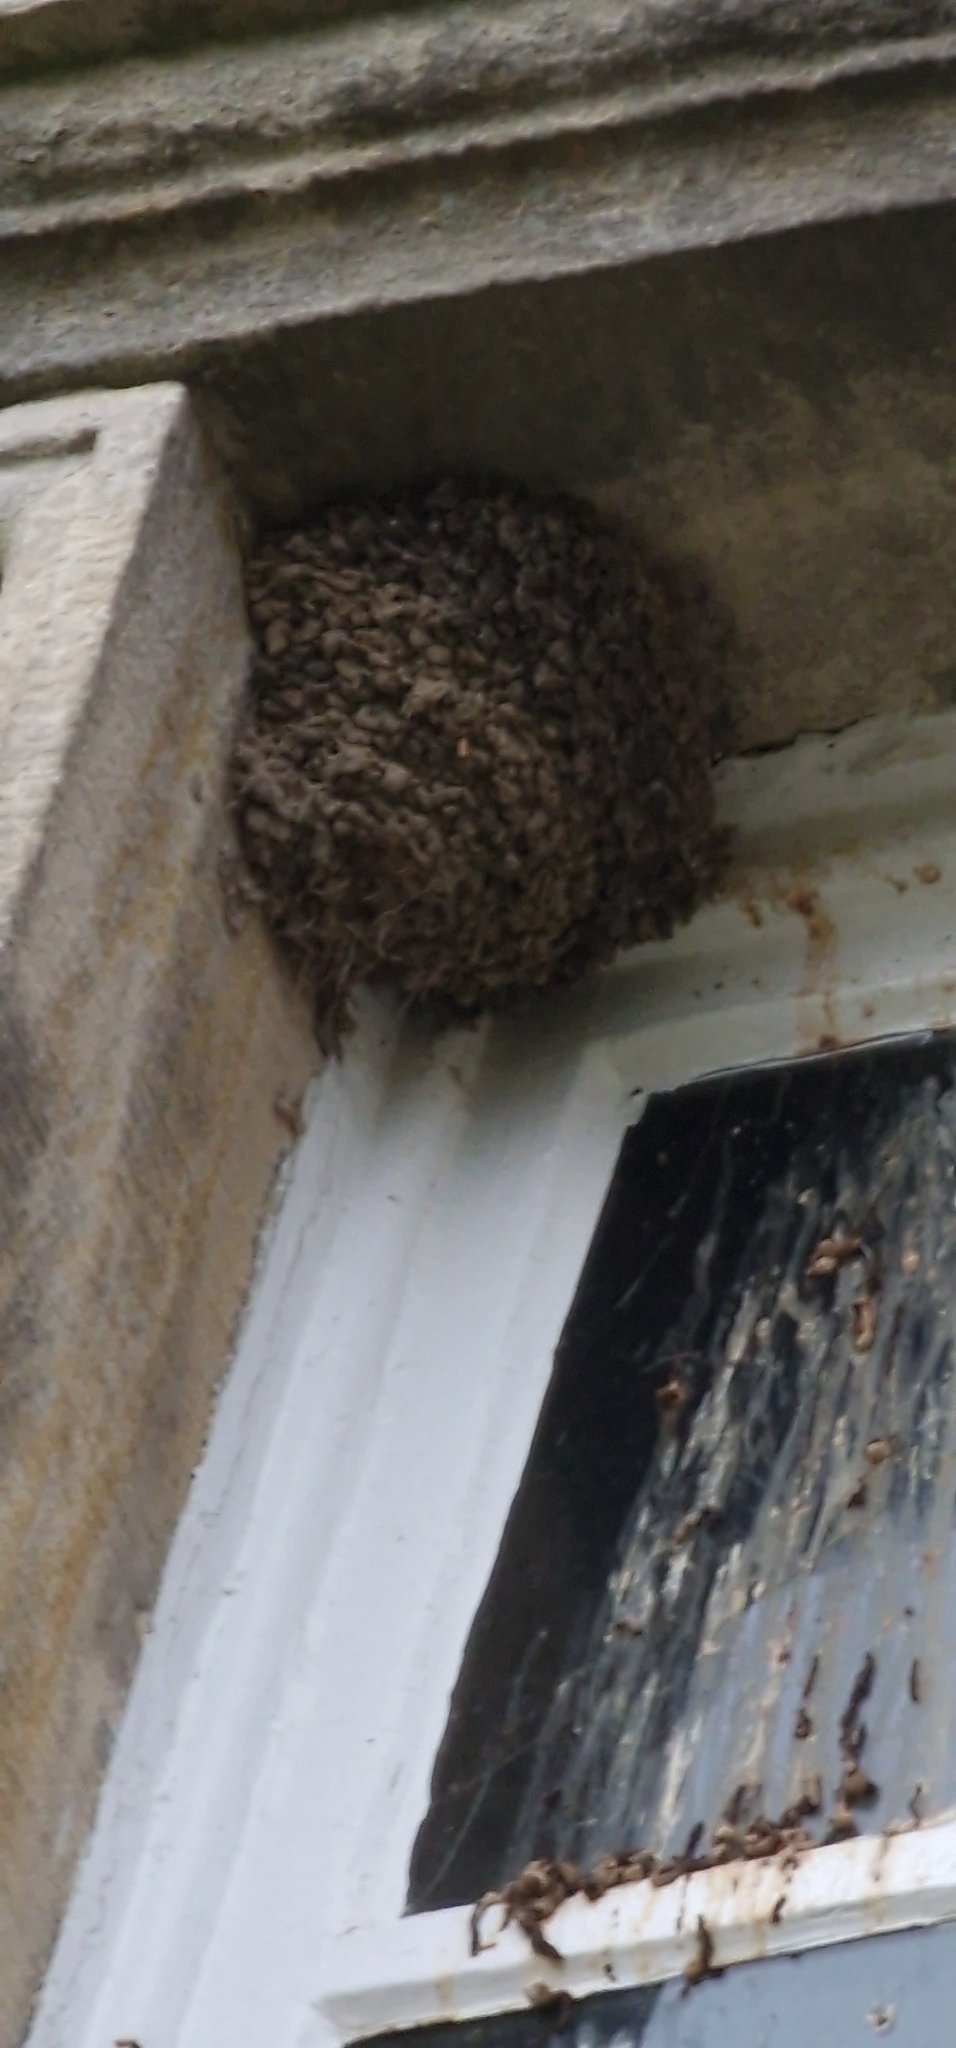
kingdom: Animalia
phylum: Chordata
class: Aves
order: Passeriformes
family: Hirundinidae
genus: Delichon
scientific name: Delichon urbicum
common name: Common house martin
